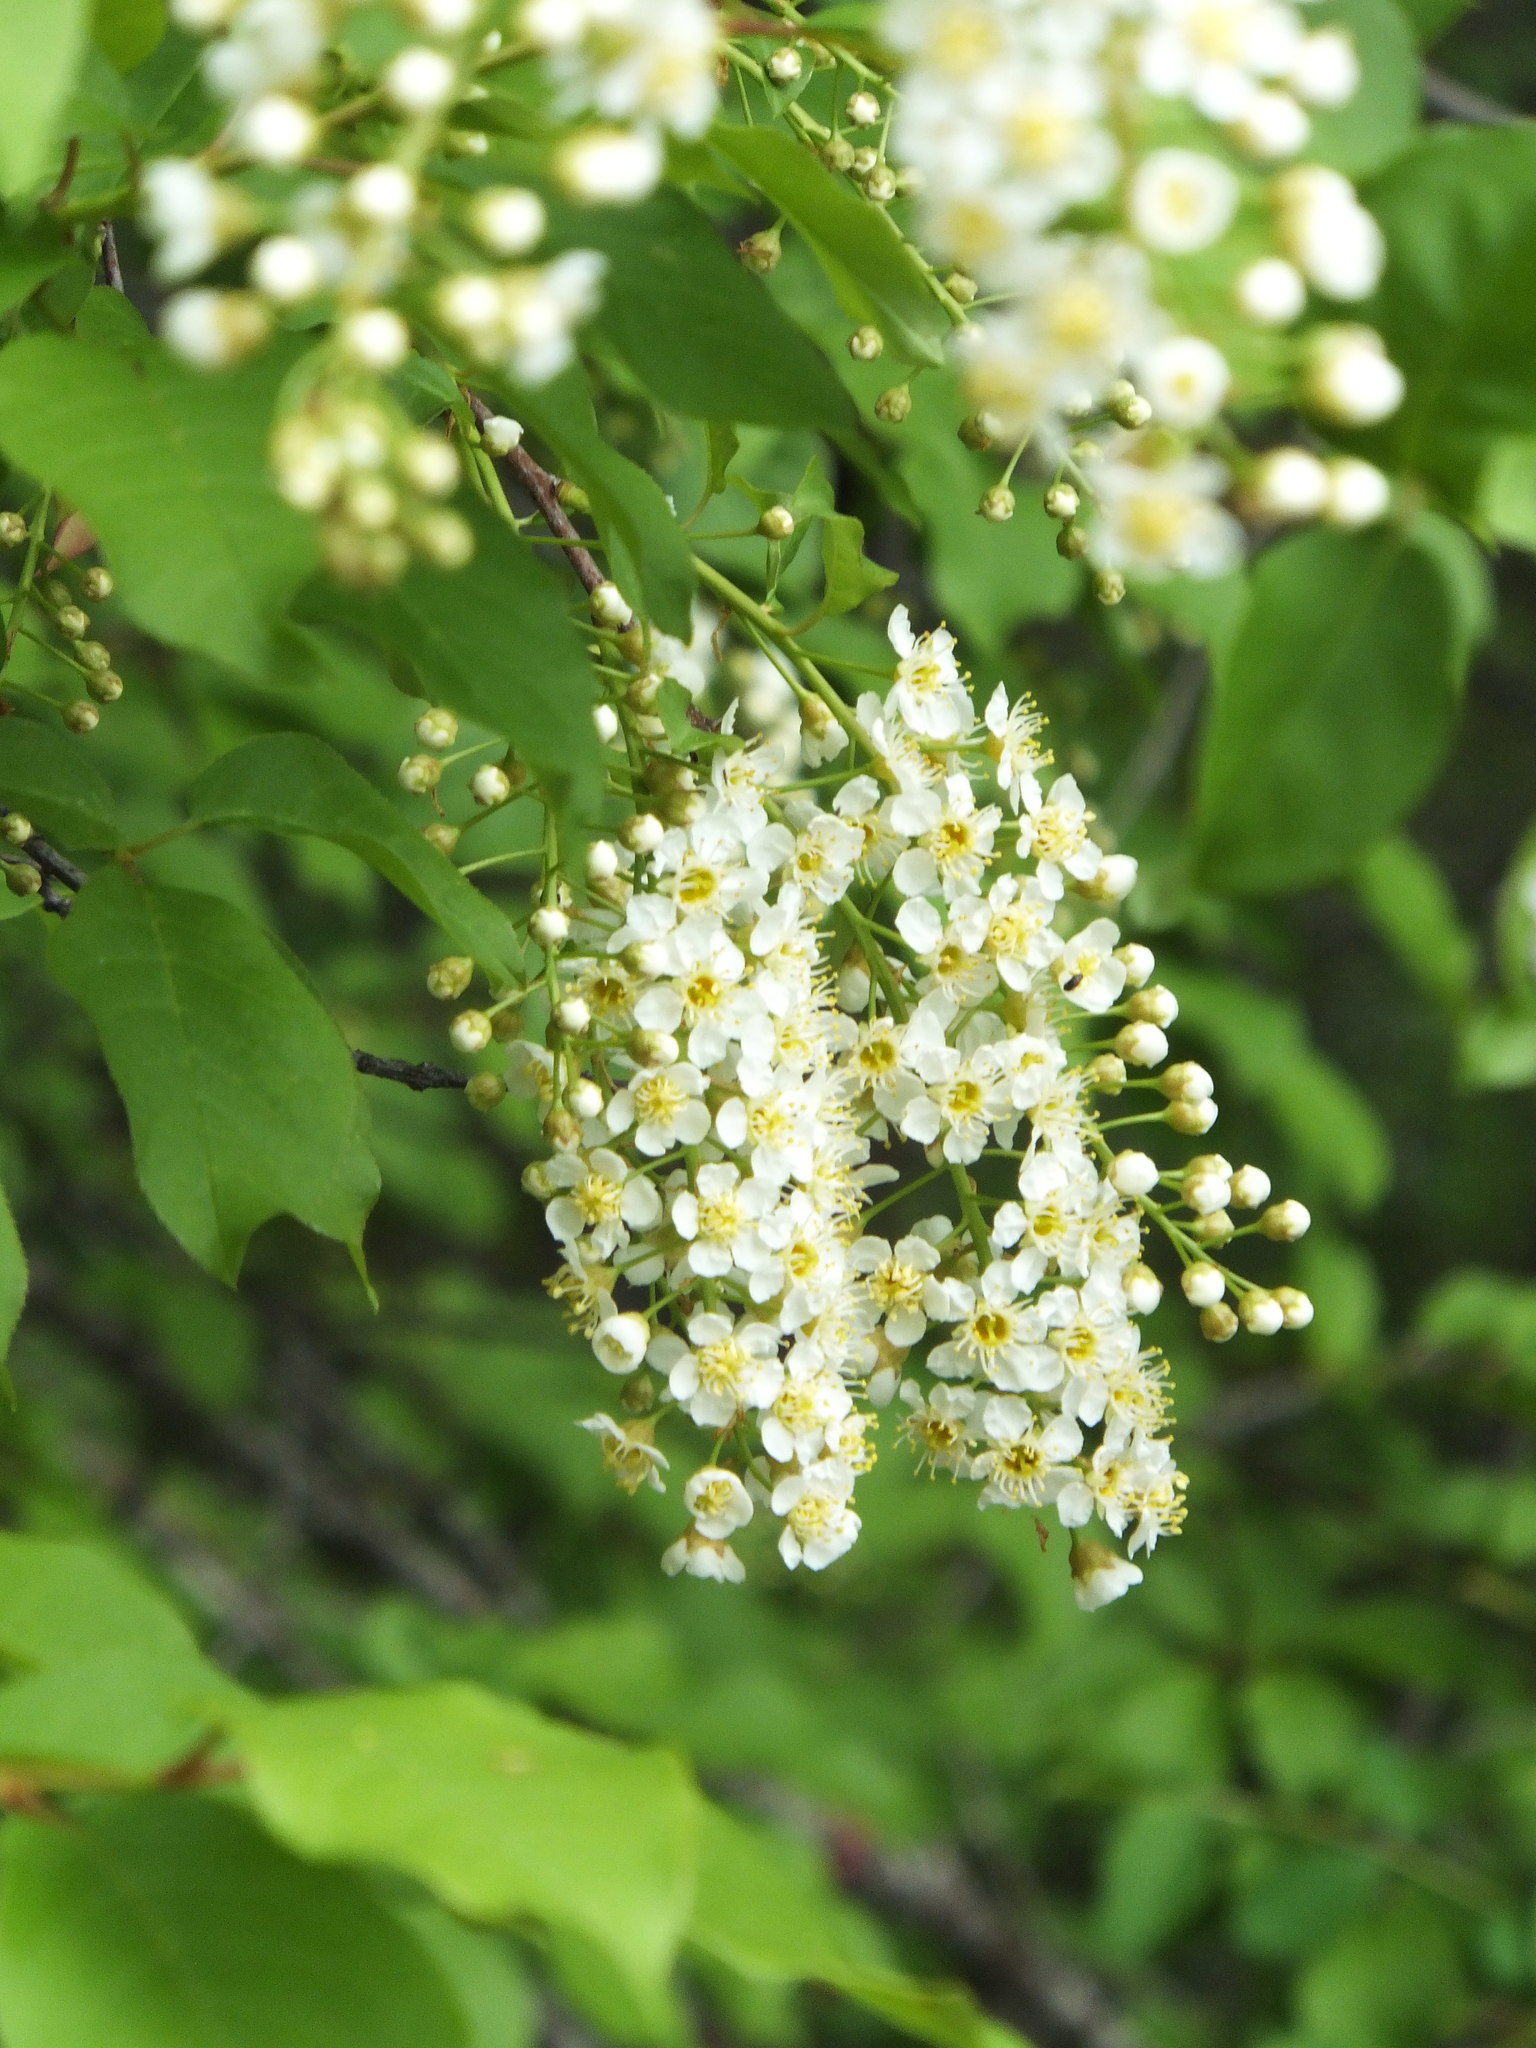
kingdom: Plantae
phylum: Tracheophyta
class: Magnoliopsida
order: Rosales
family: Rosaceae
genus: Prunus
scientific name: Prunus virginiana
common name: Chokecherry
